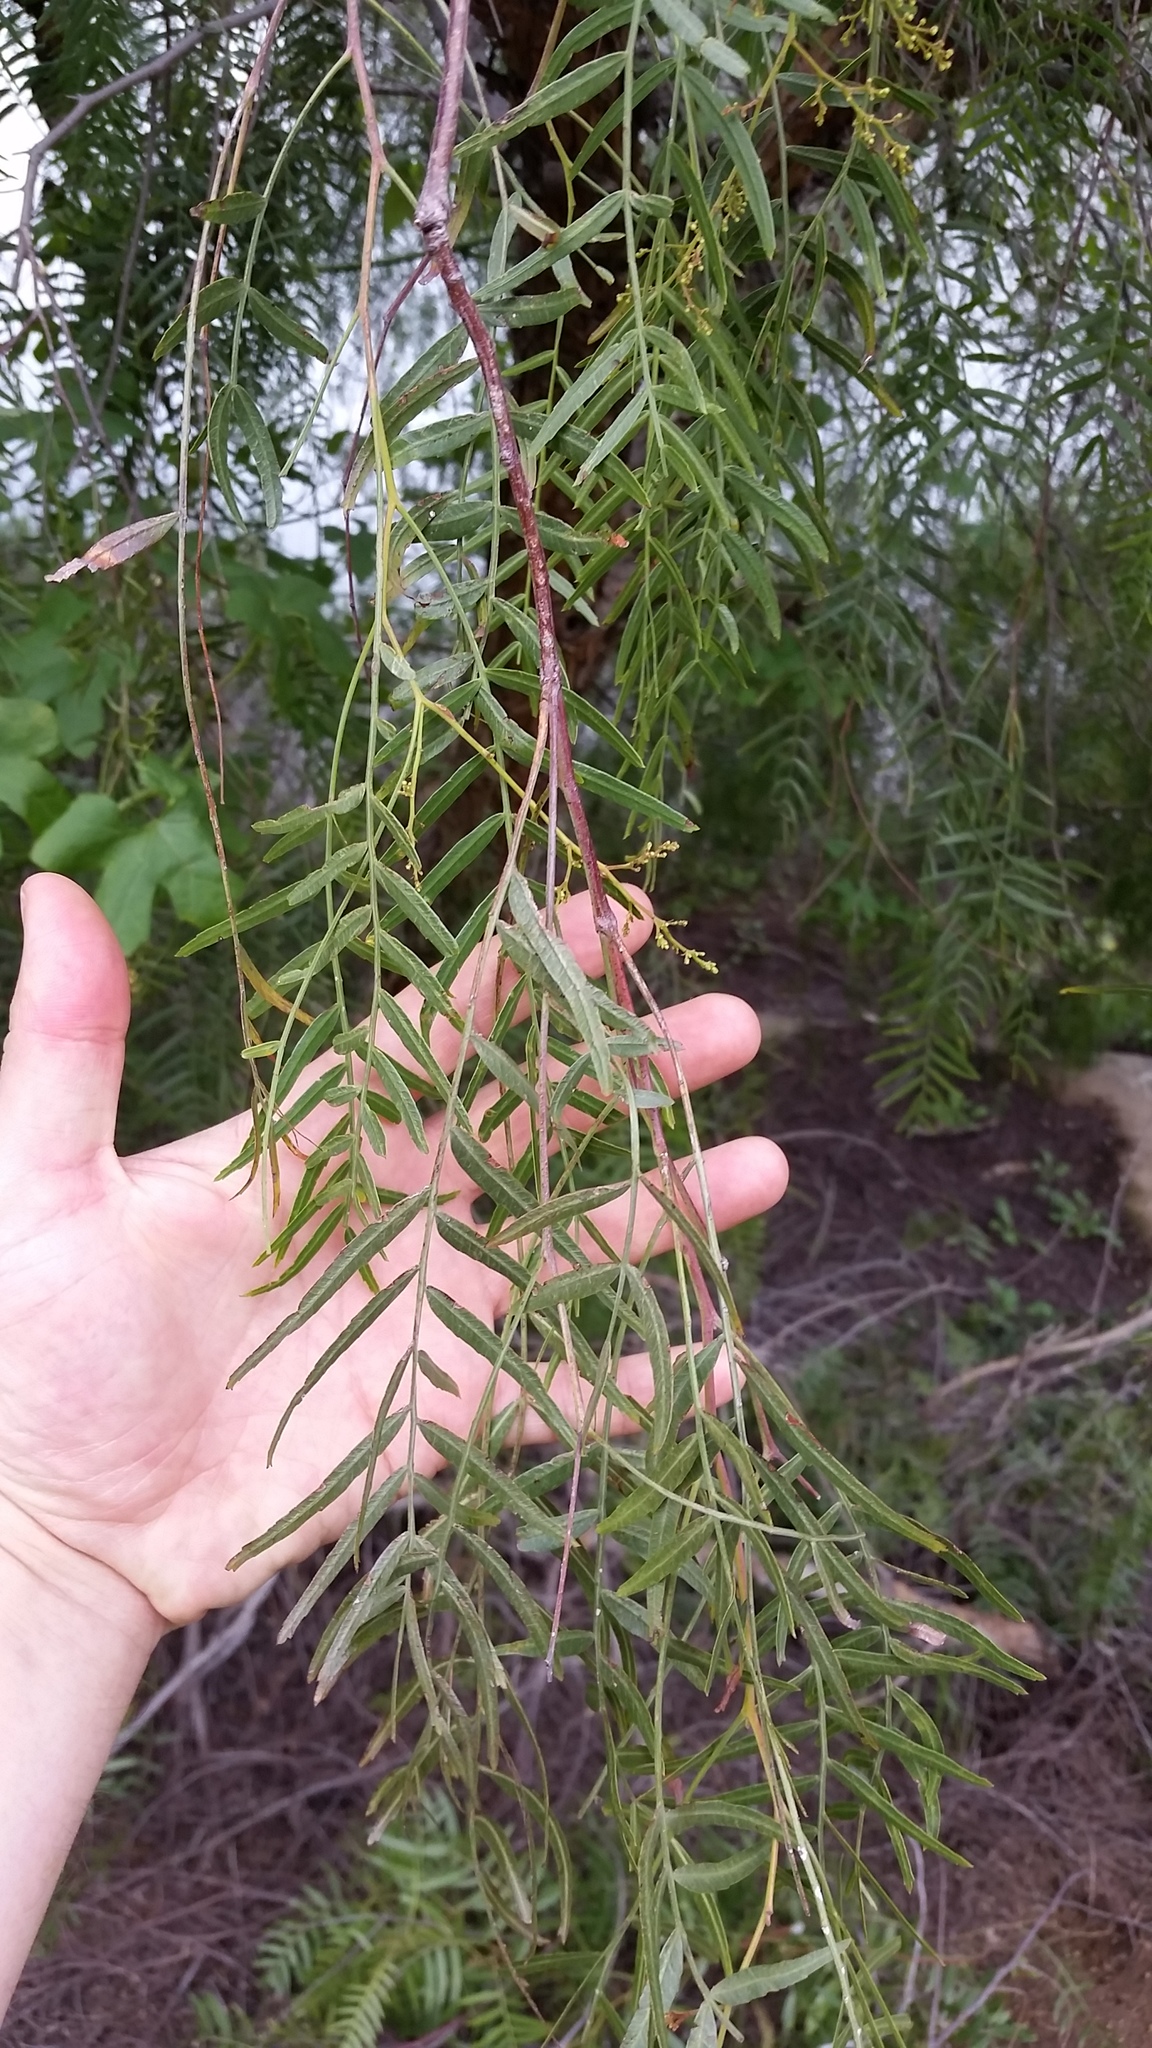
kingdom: Plantae
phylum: Tracheophyta
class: Magnoliopsida
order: Sapindales
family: Anacardiaceae
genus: Schinus
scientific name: Schinus molle
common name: Peruvian peppertree
